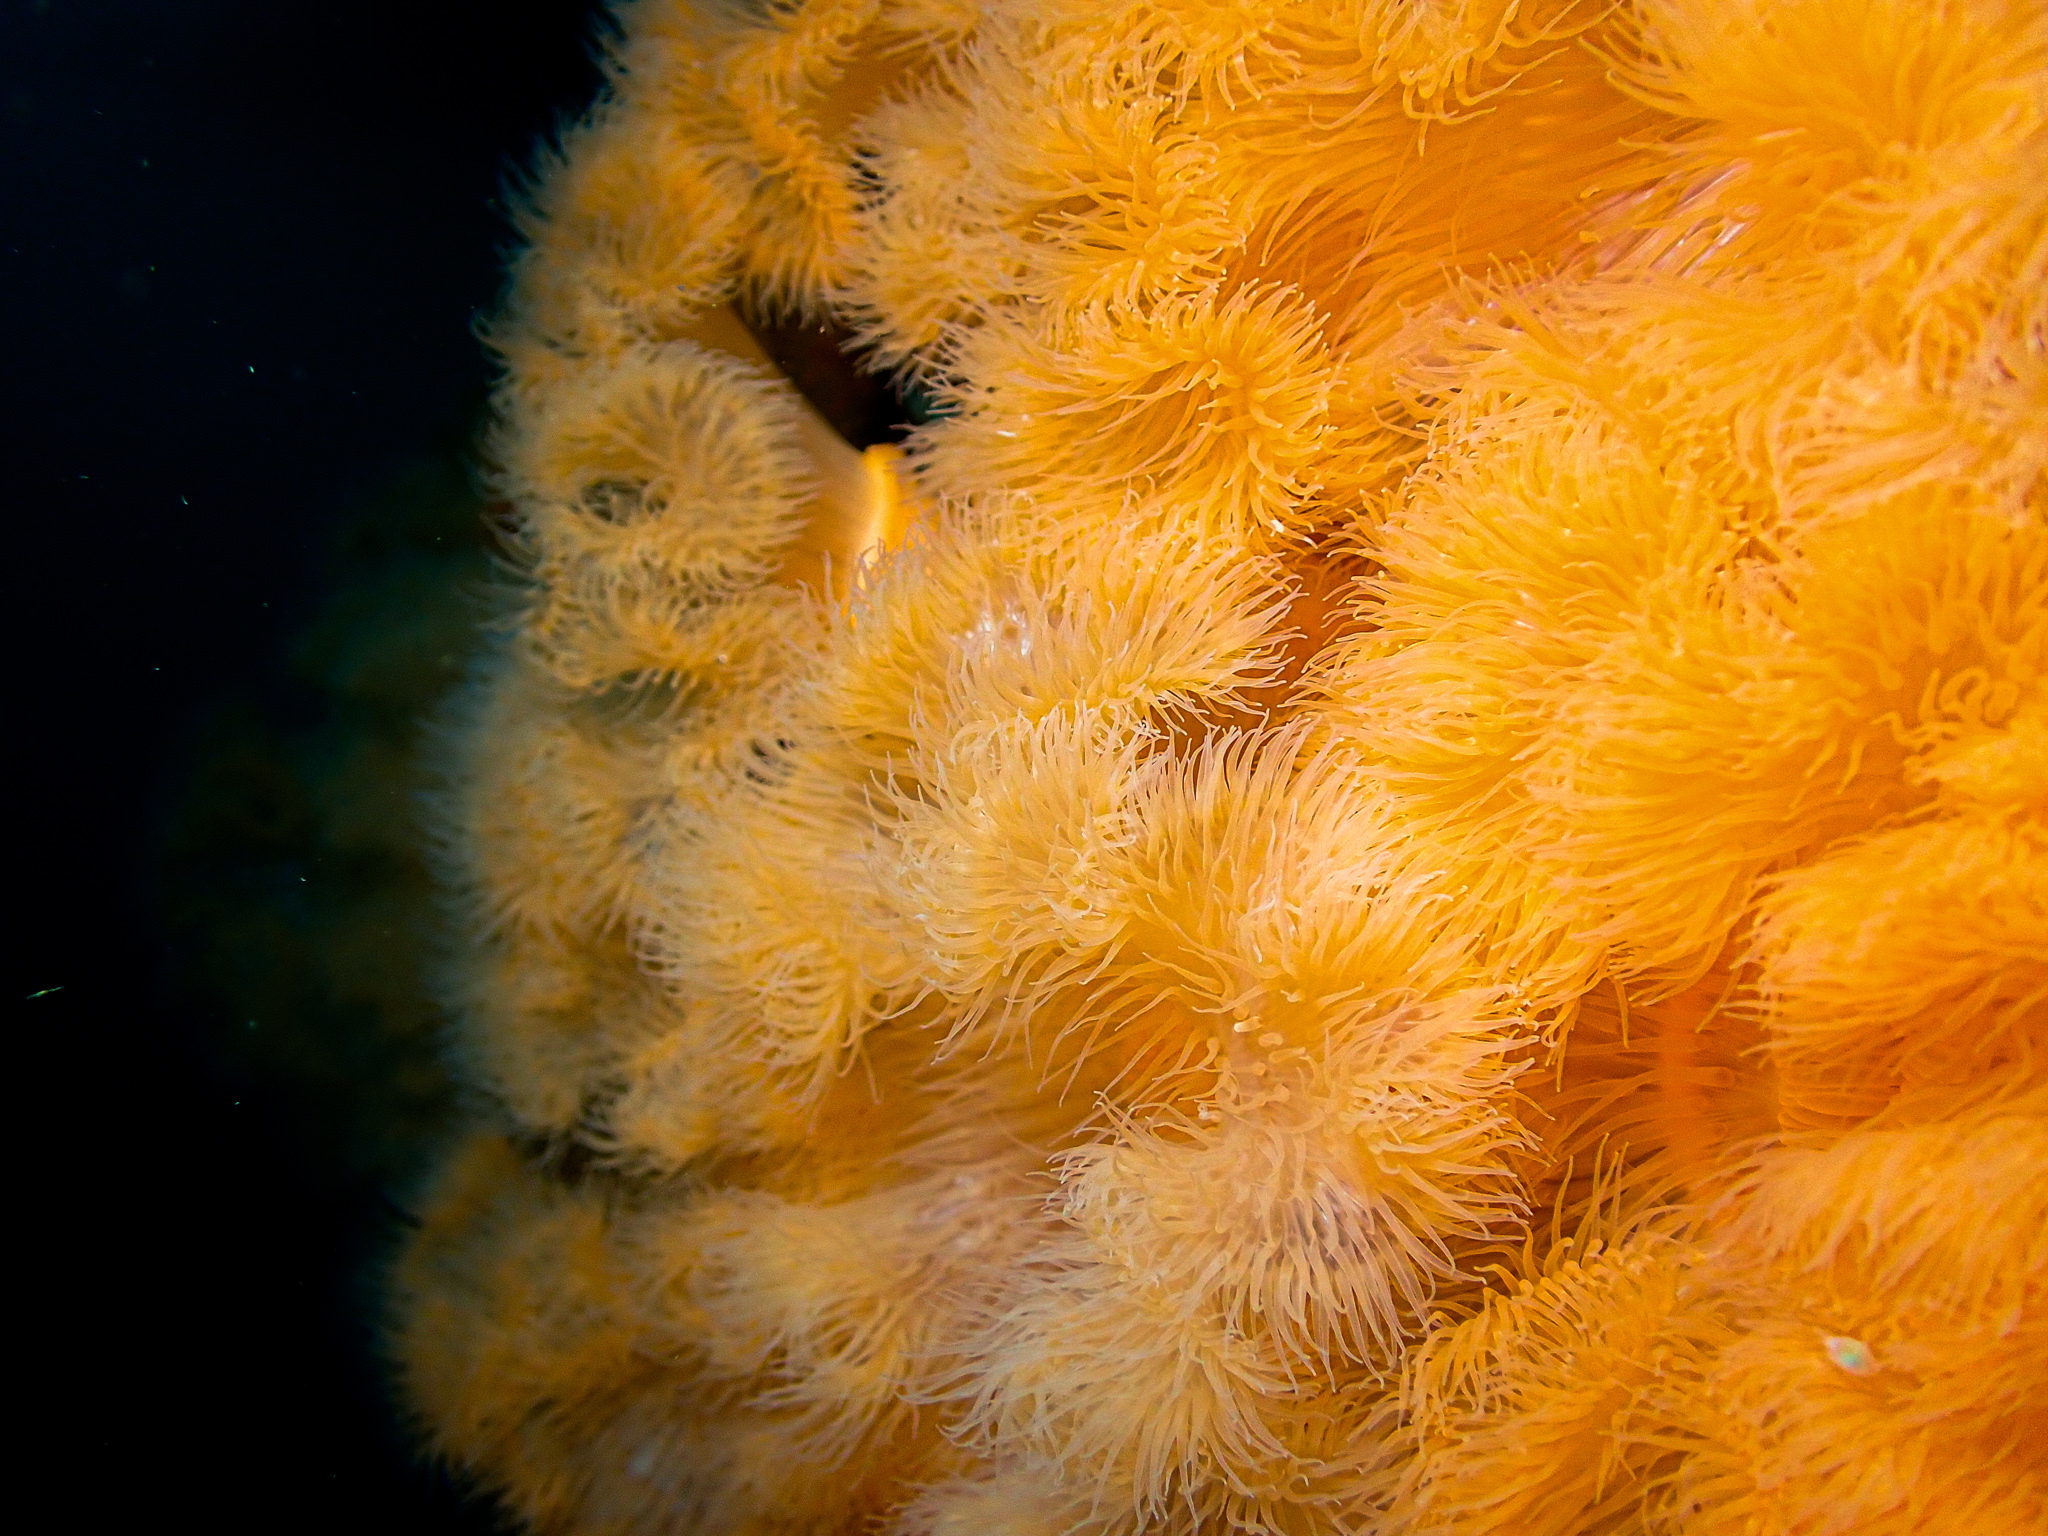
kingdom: Animalia
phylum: Cnidaria
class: Anthozoa
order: Actiniaria
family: Metridiidae
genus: Metridium
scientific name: Metridium senile
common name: Clonal plumose anemone
